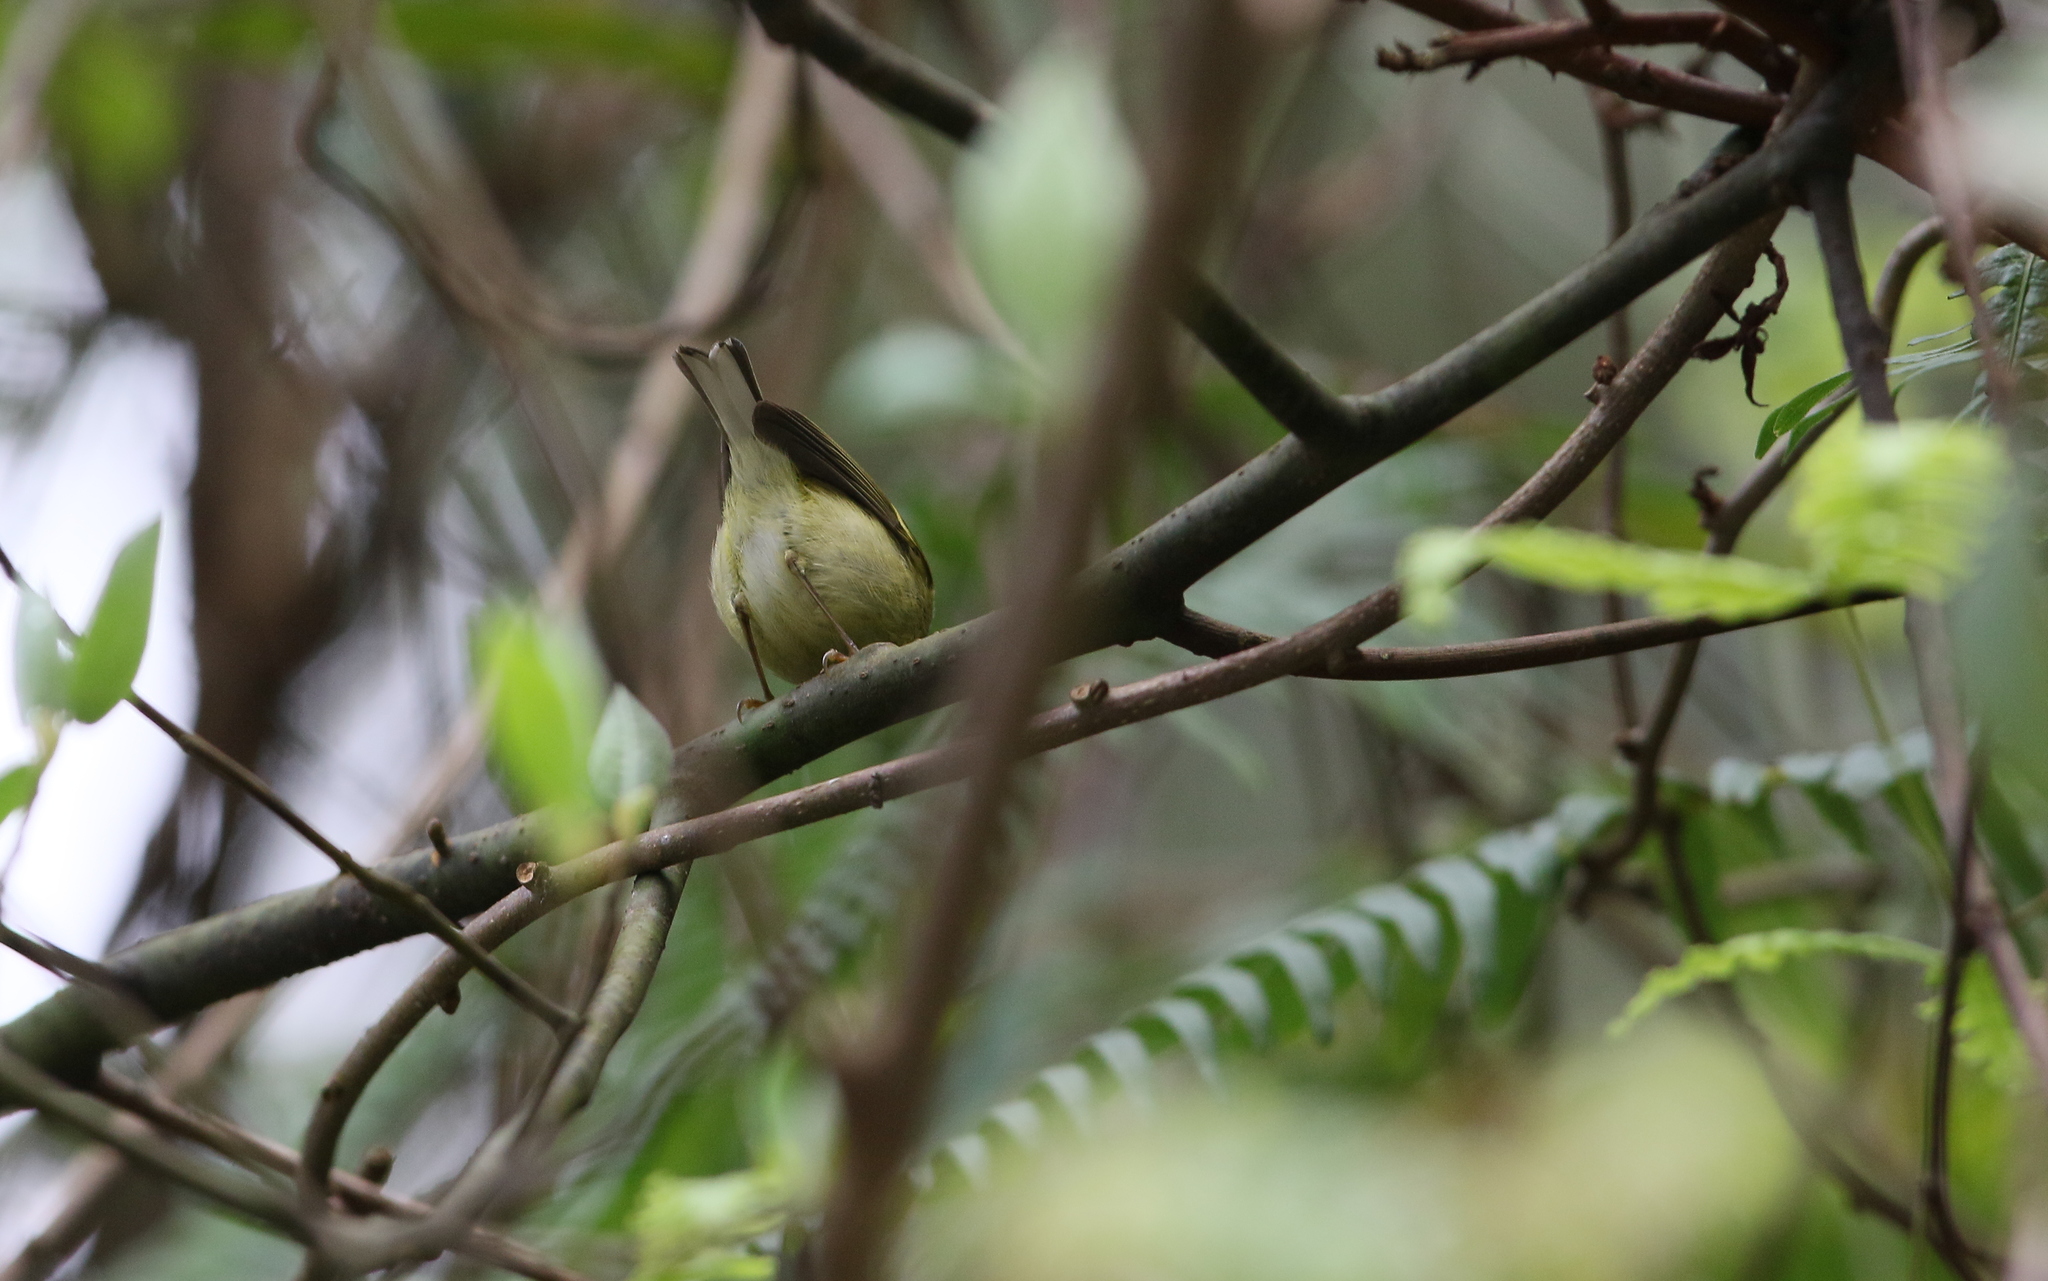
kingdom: Animalia
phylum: Chordata
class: Aves
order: Passeriformes
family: Phylloscopidae
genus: Phylloscopus
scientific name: Phylloscopus intensior
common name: Davison's leaf warbler
